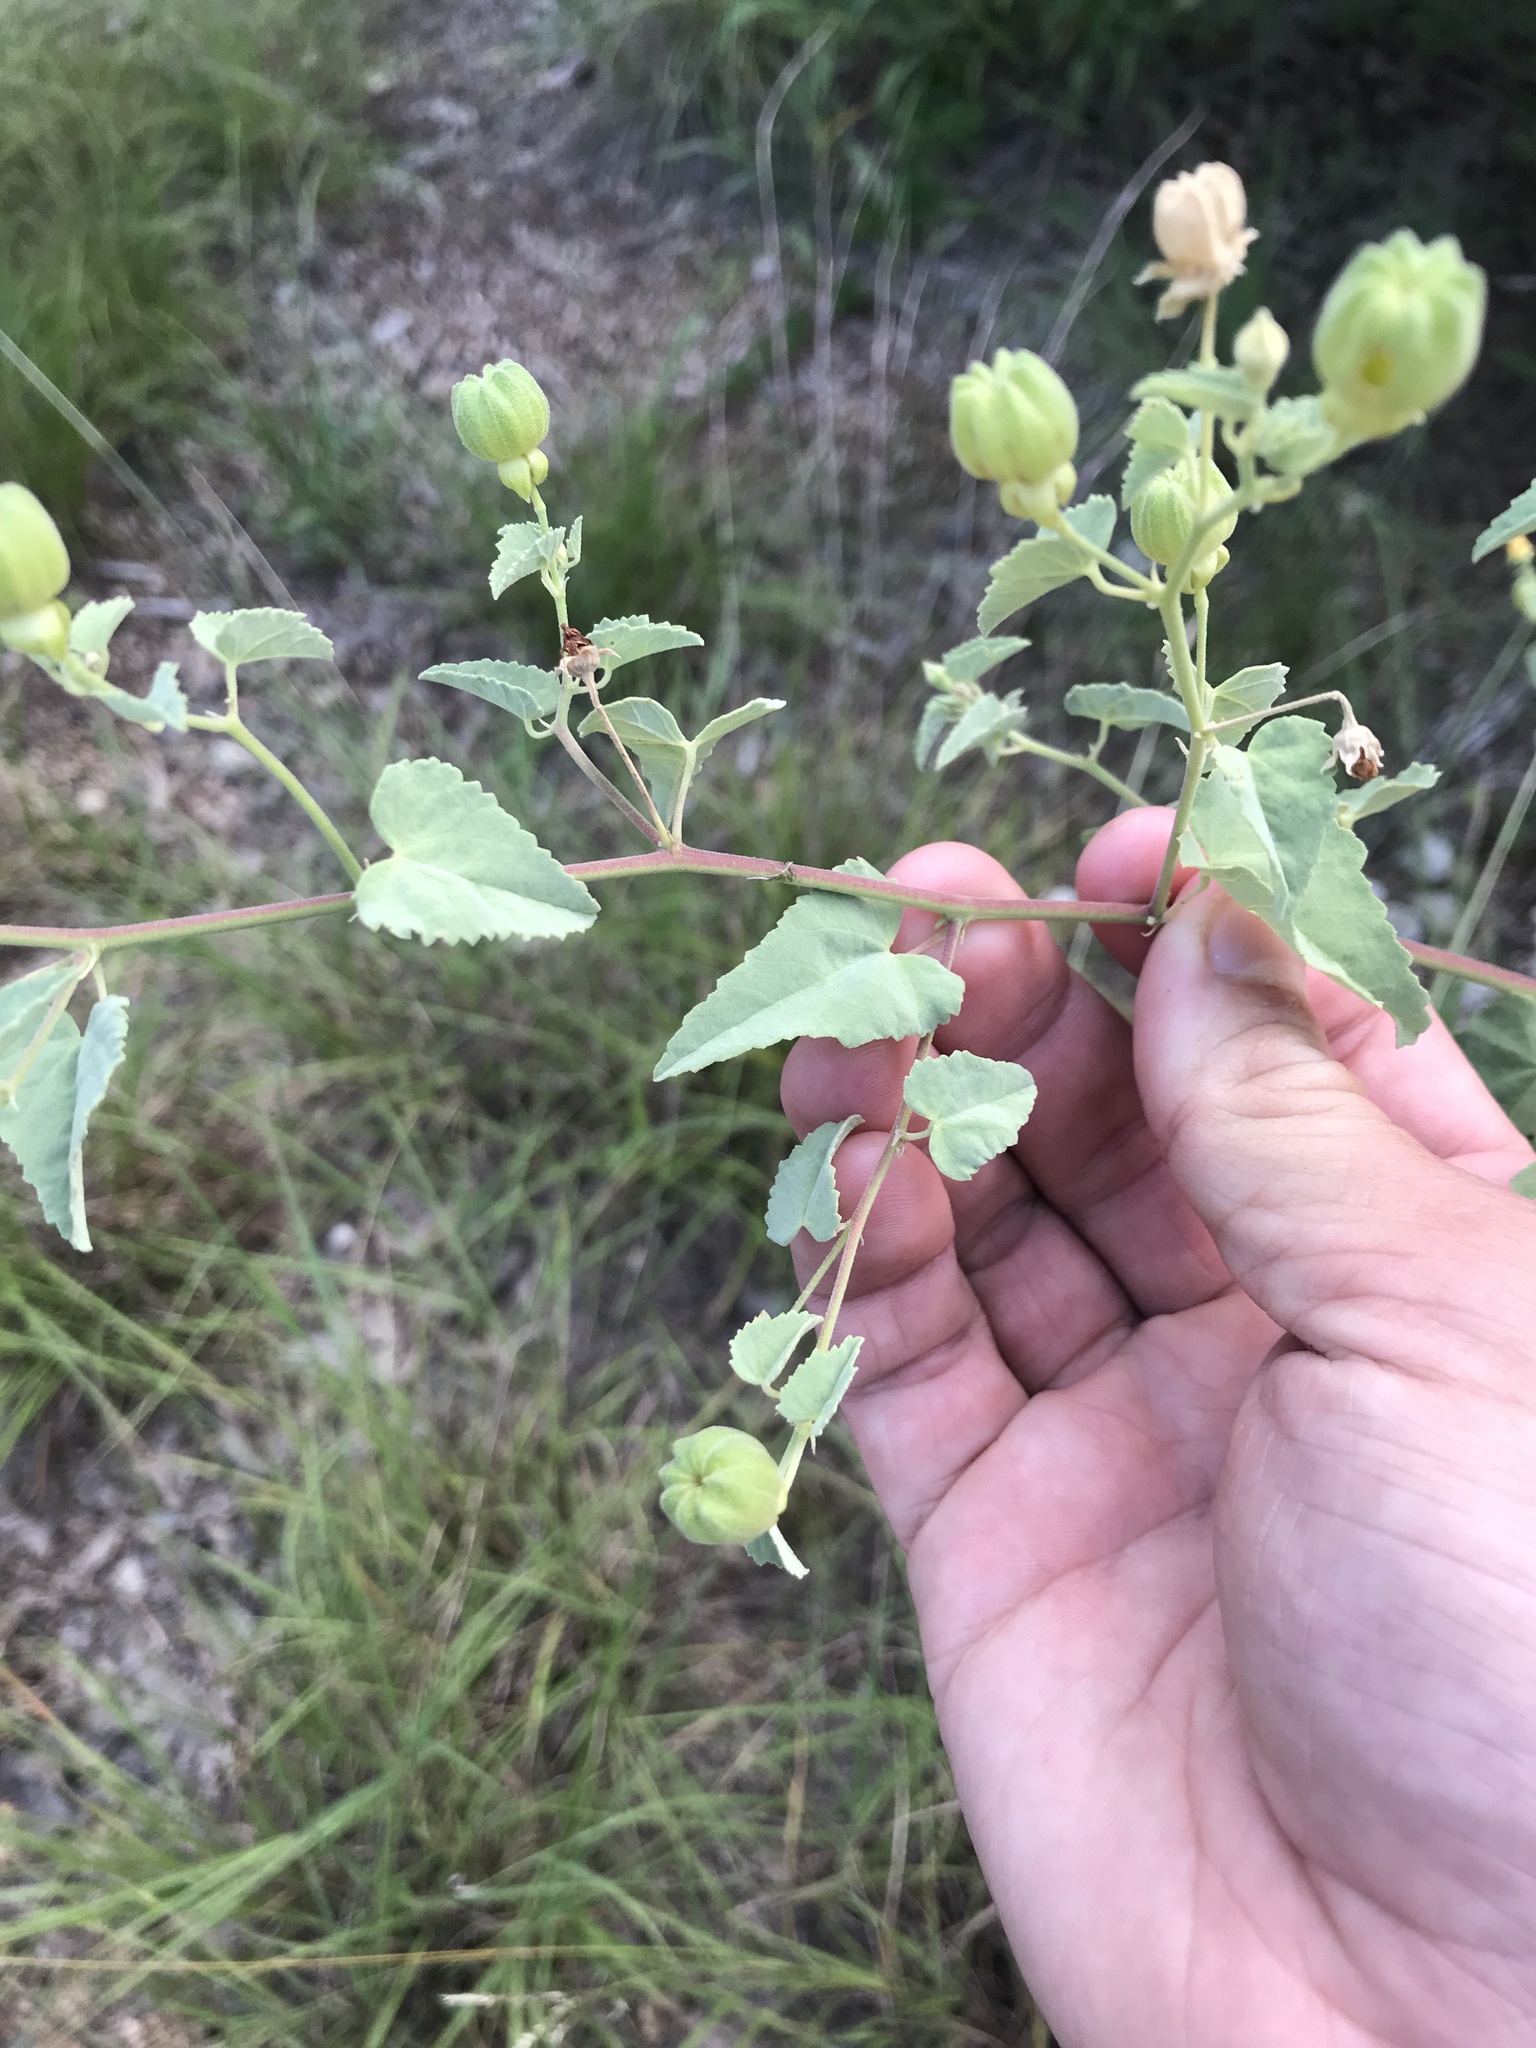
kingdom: Plantae
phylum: Tracheophyta
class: Magnoliopsida
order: Malvales
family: Malvaceae
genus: Abutilon
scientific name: Abutilon fruticosum
